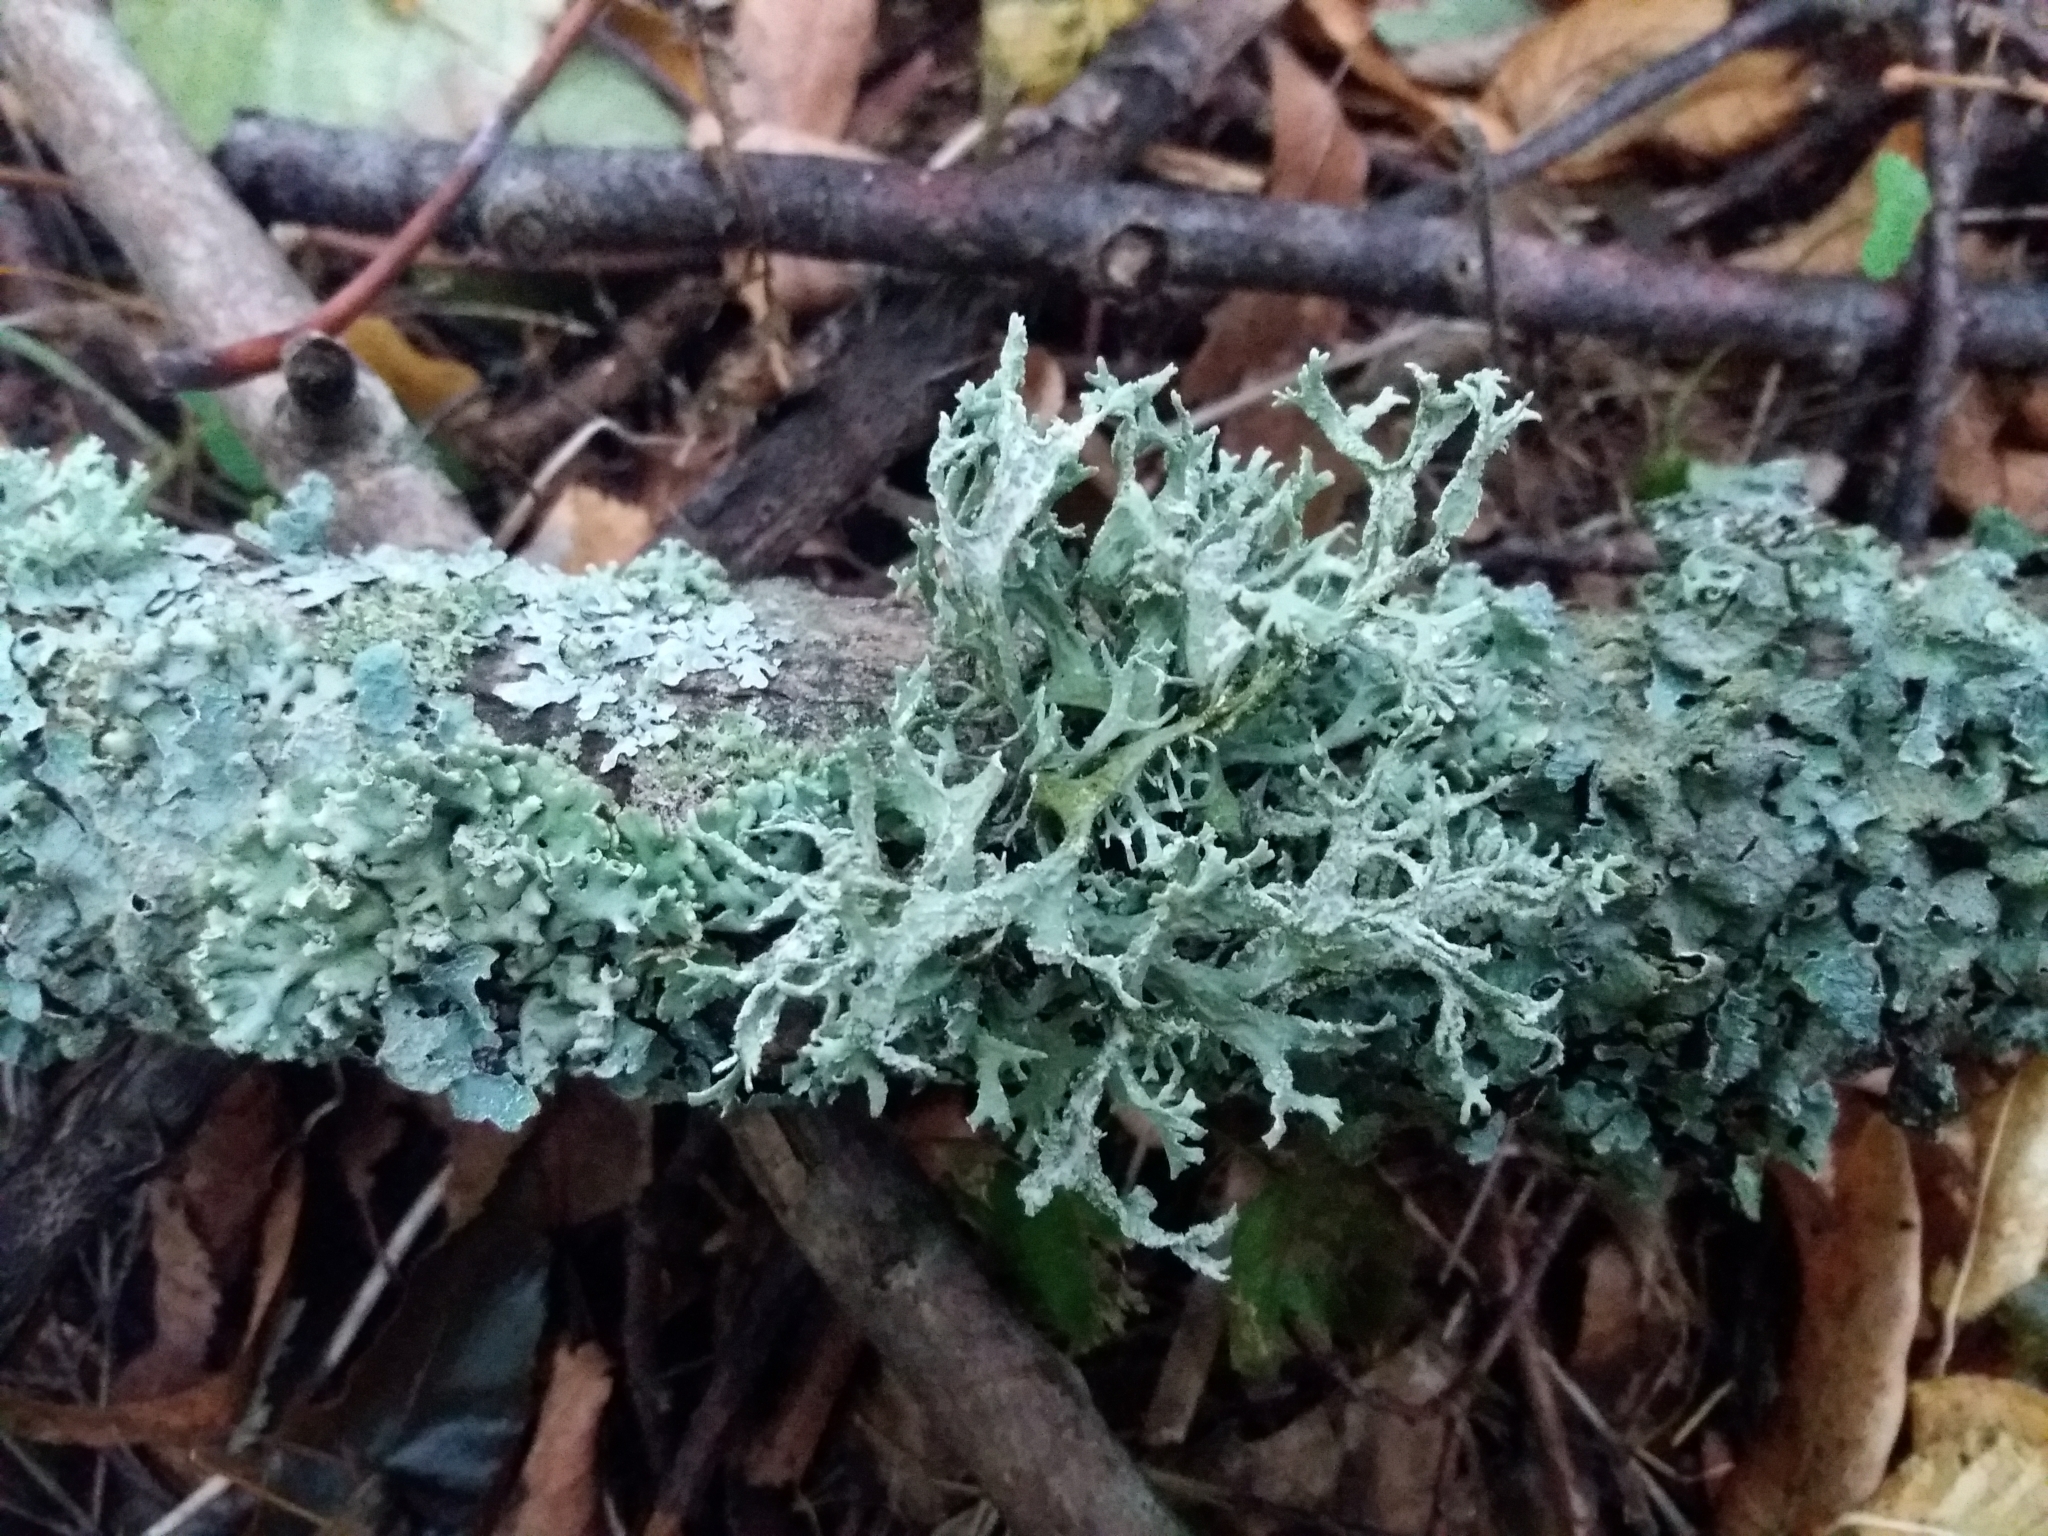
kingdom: Fungi
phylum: Ascomycota
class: Lecanoromycetes
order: Lecanorales
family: Parmeliaceae
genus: Evernia
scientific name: Evernia prunastri
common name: Oak moss
